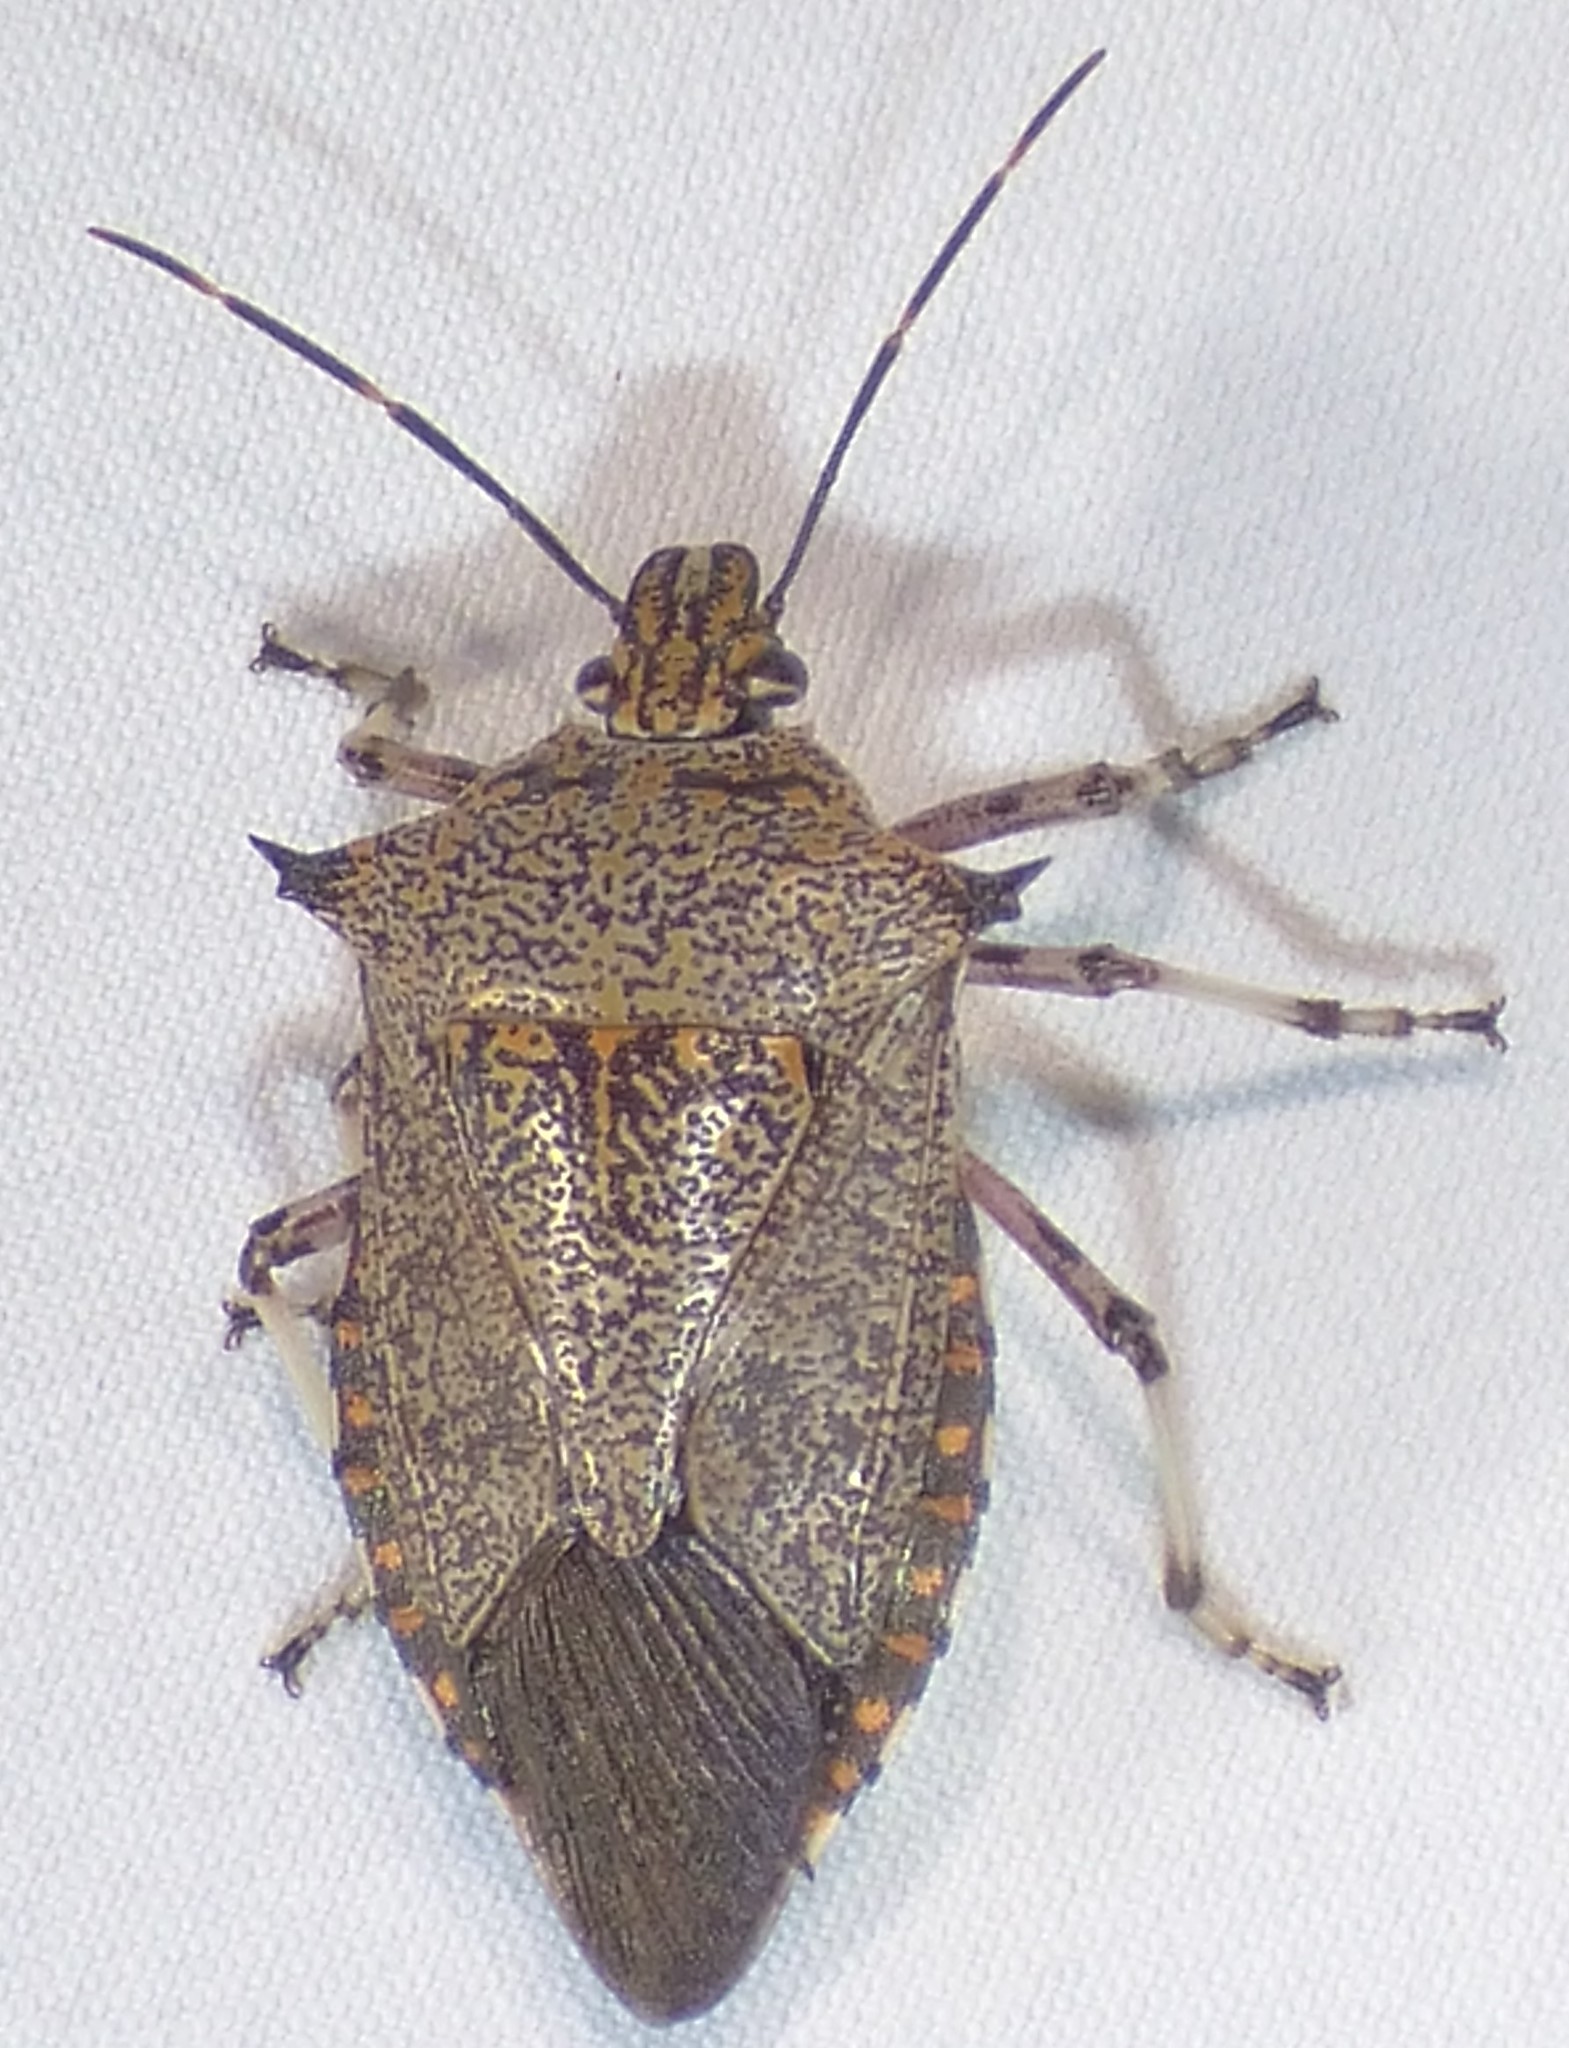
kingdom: Animalia
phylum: Arthropoda
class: Insecta
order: Hemiptera
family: Pentatomidae
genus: Alcaeorrhynchus
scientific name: Alcaeorrhynchus grandis
